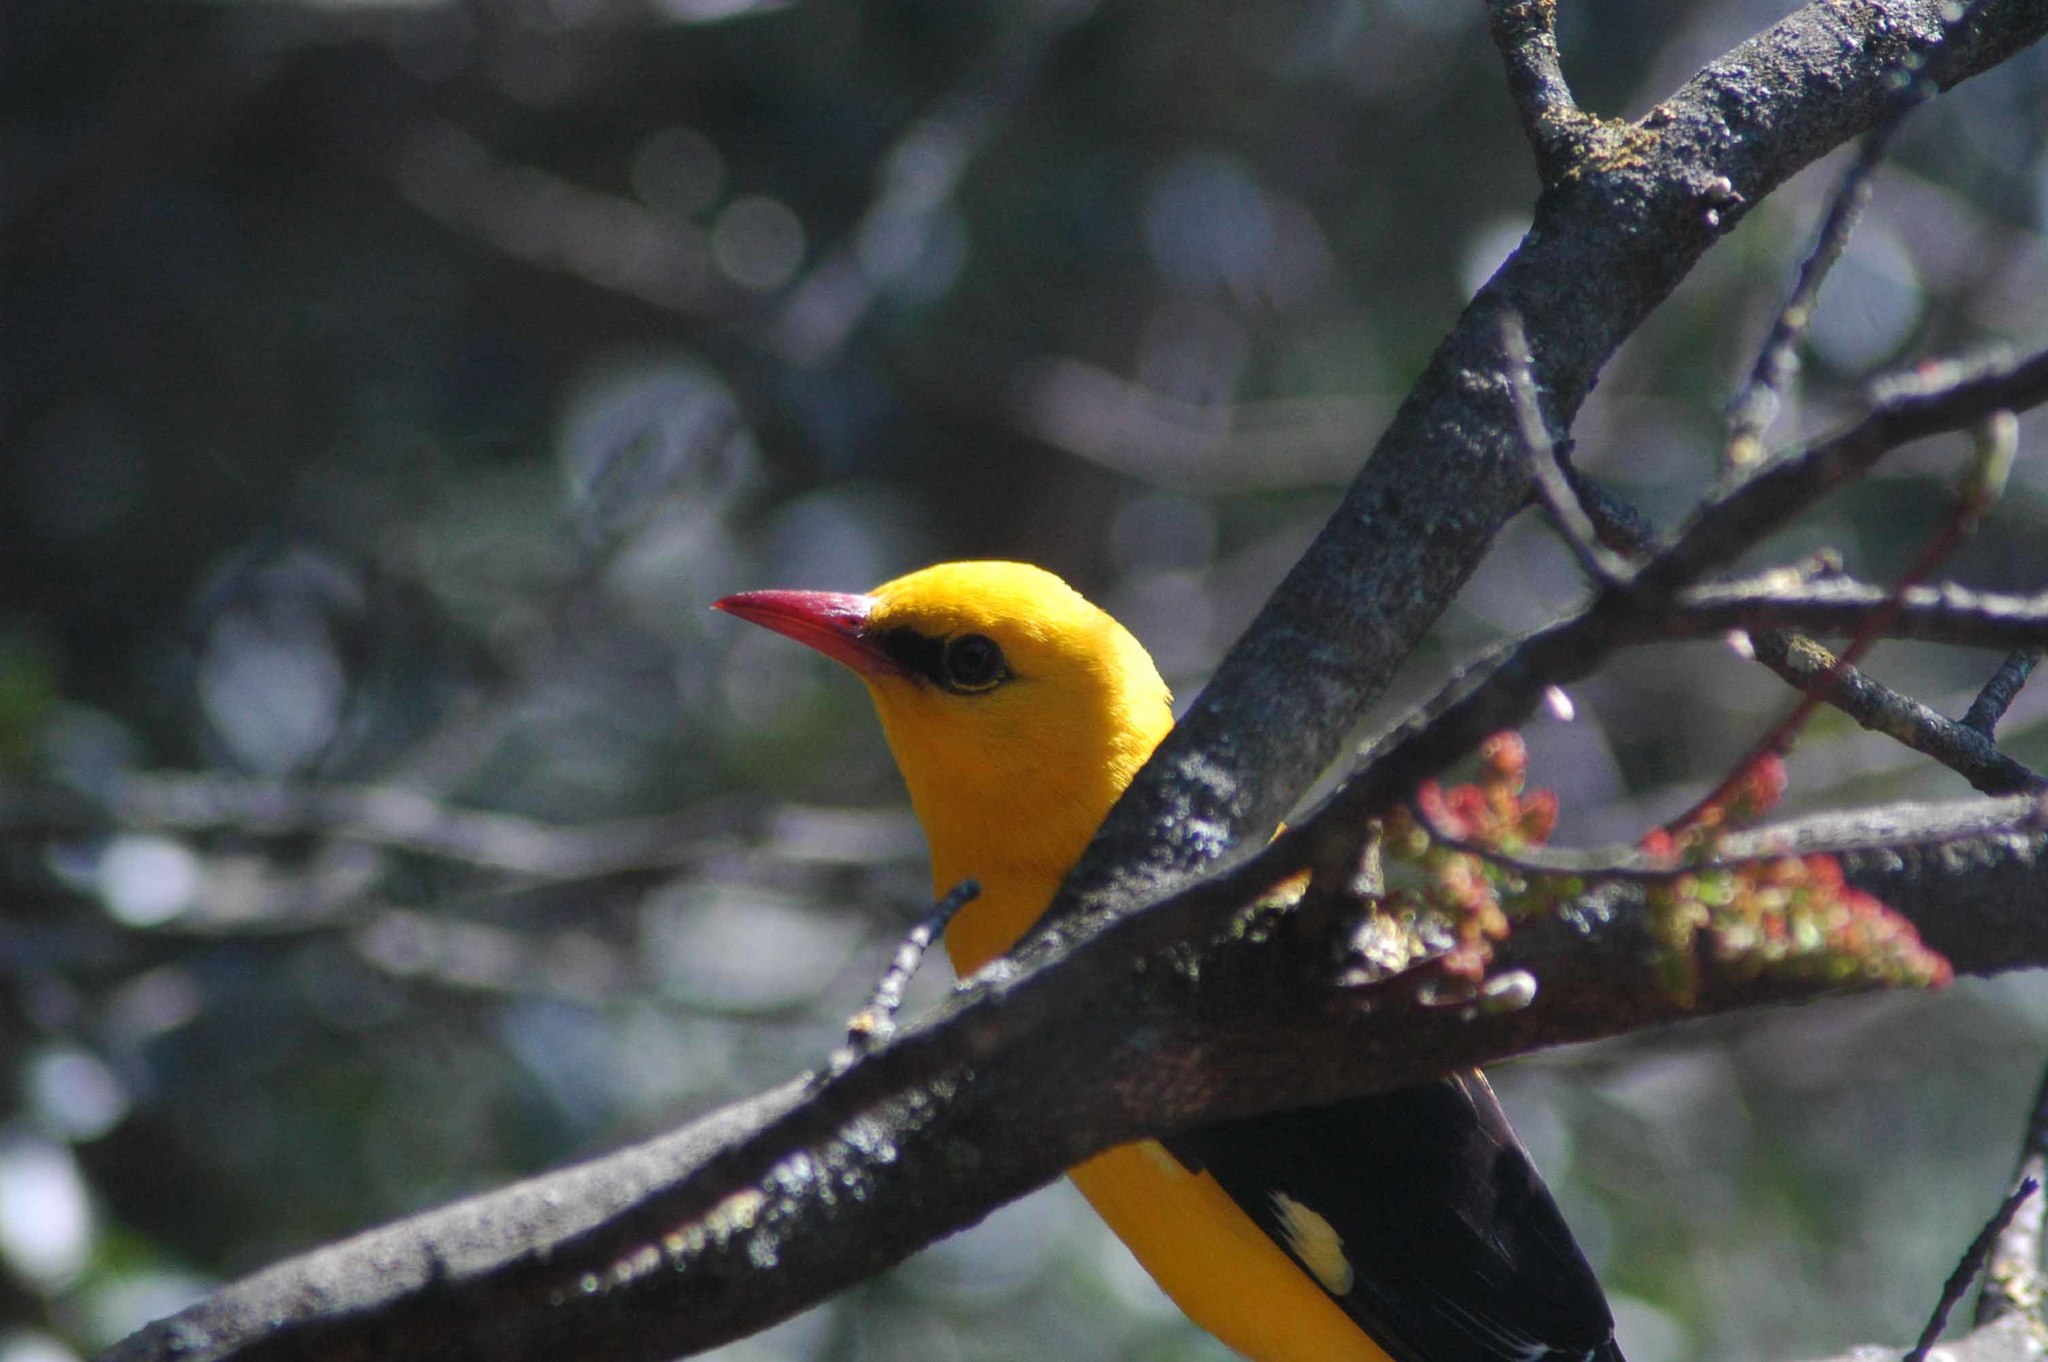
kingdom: Animalia
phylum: Chordata
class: Aves
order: Passeriformes
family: Oriolidae
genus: Oriolus
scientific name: Oriolus oriolus
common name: Eurasian golden oriole
